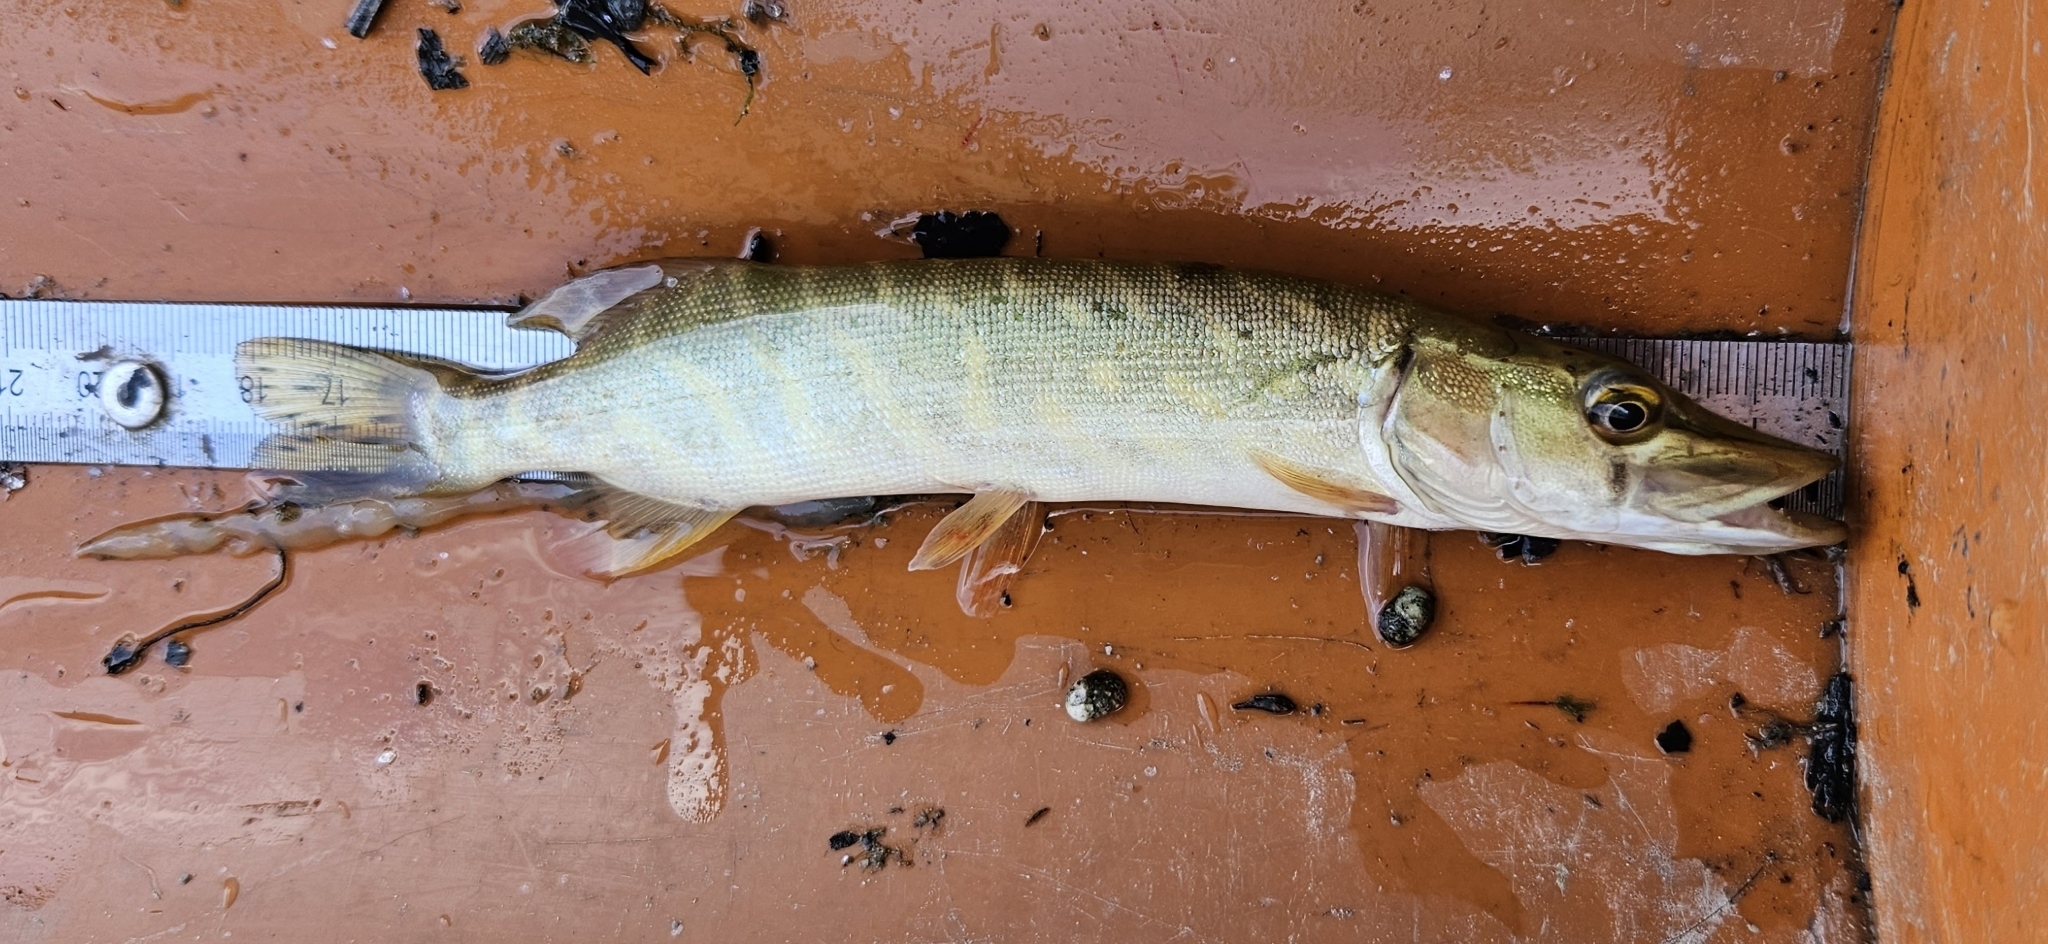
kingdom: Animalia
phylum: Chordata
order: Esociformes
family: Esocidae
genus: Esox
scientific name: Esox lucius
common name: Northern pike
